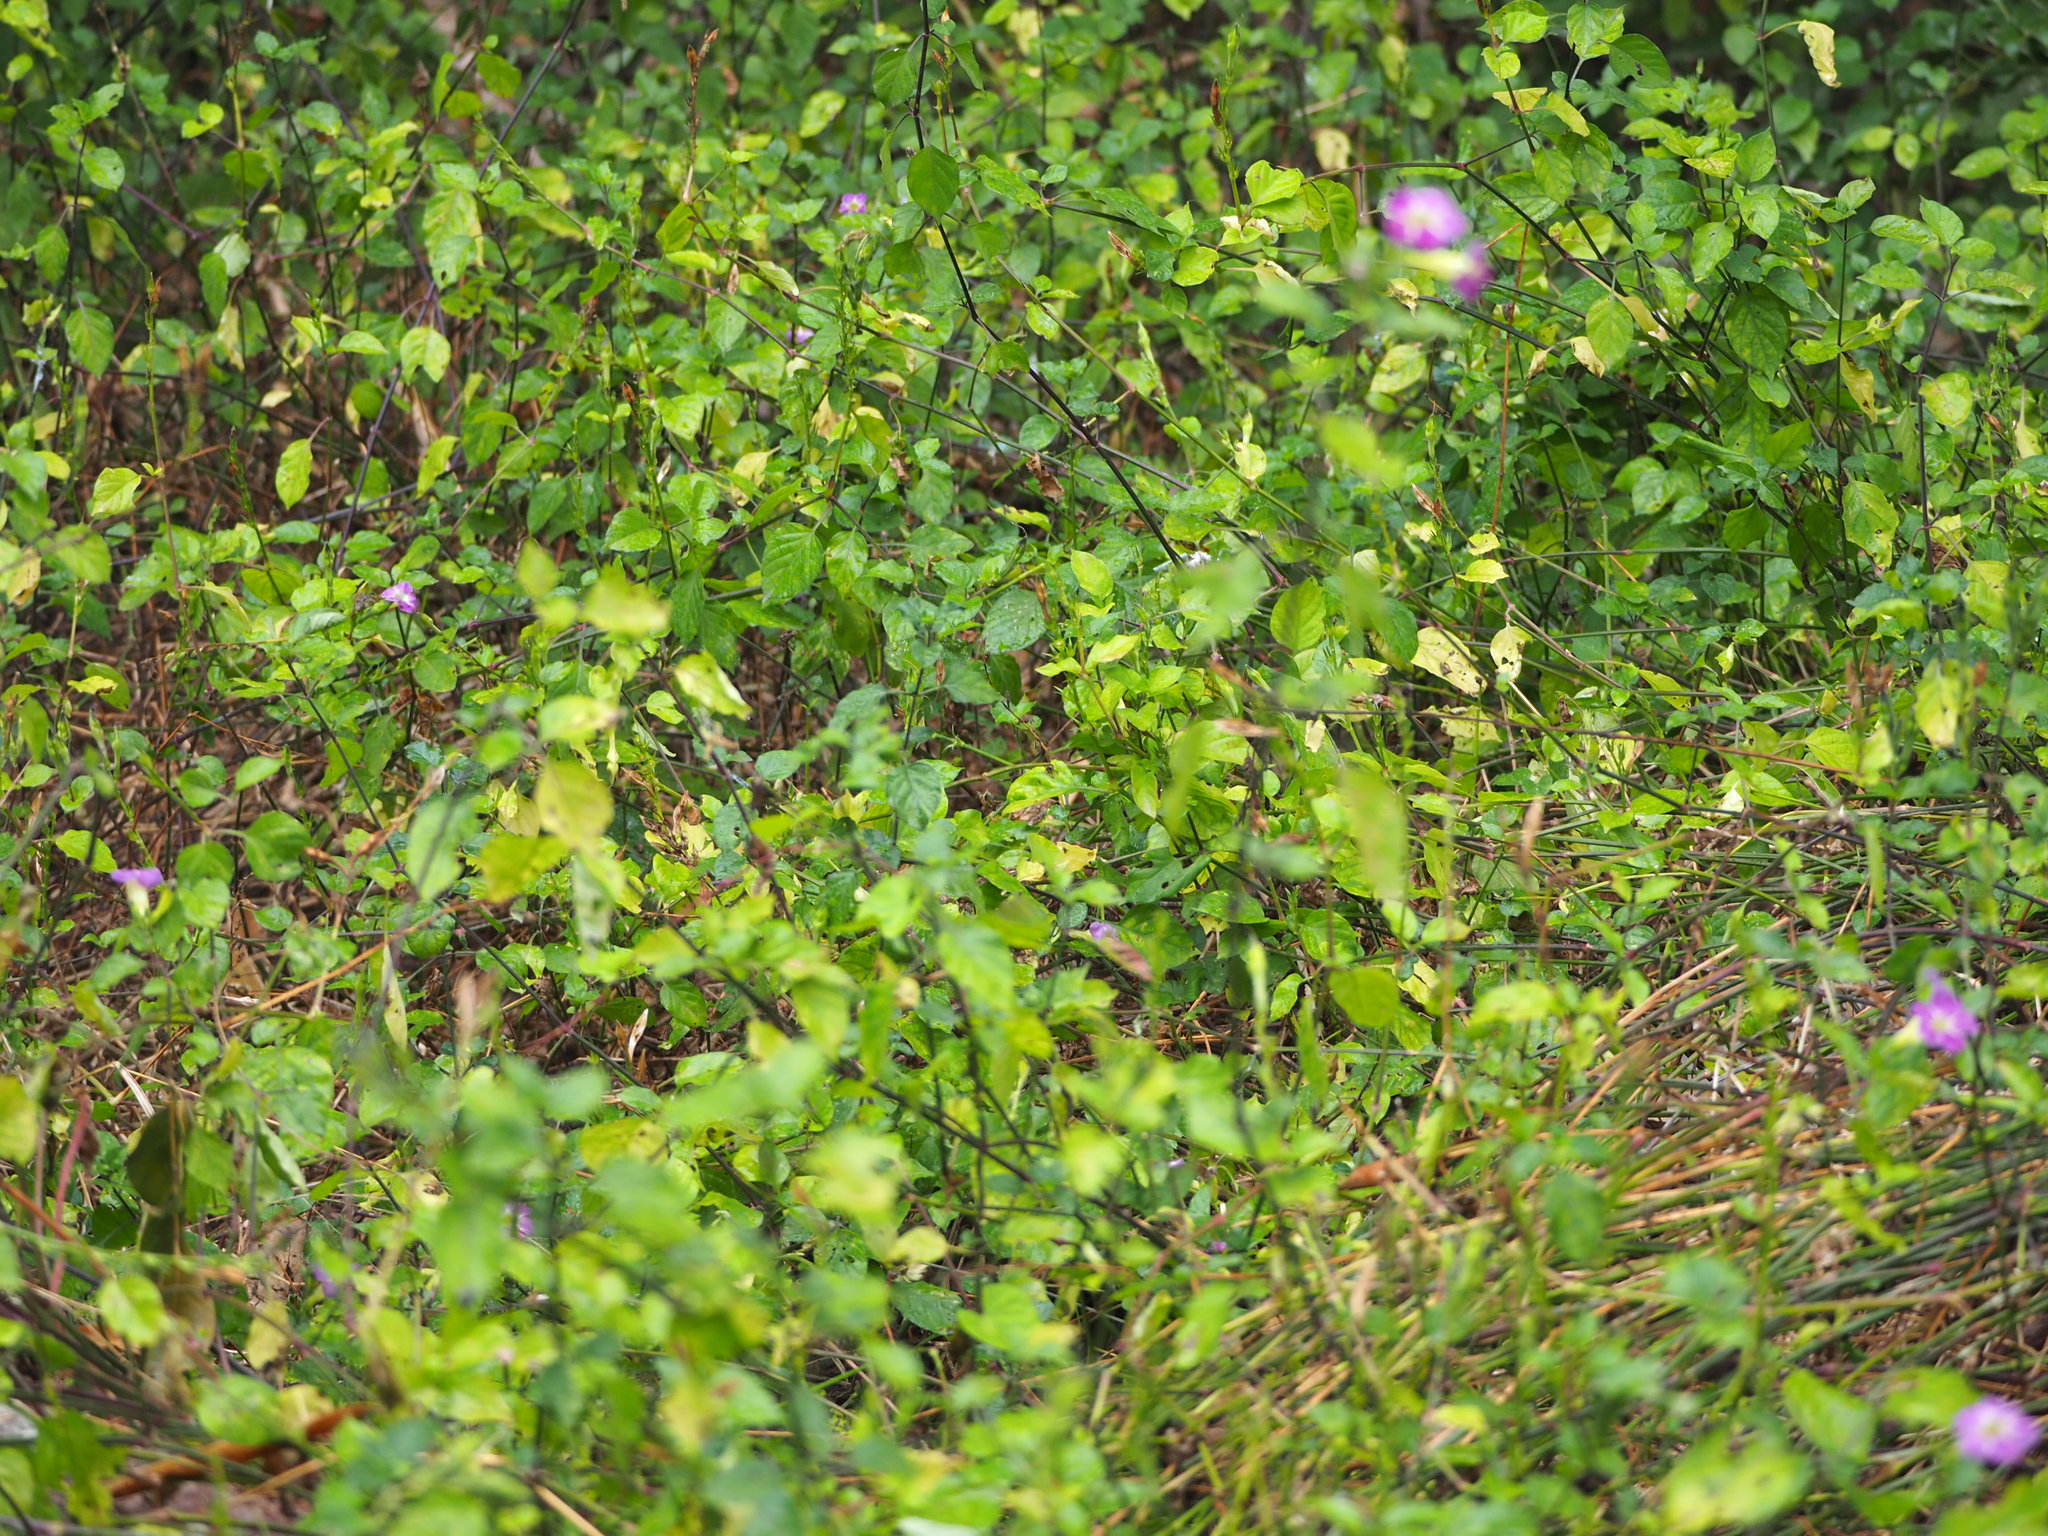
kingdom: Plantae
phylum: Tracheophyta
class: Magnoliopsida
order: Lamiales
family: Acanthaceae
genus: Asystasia
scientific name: Asystasia gangetica
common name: Chinese violet
